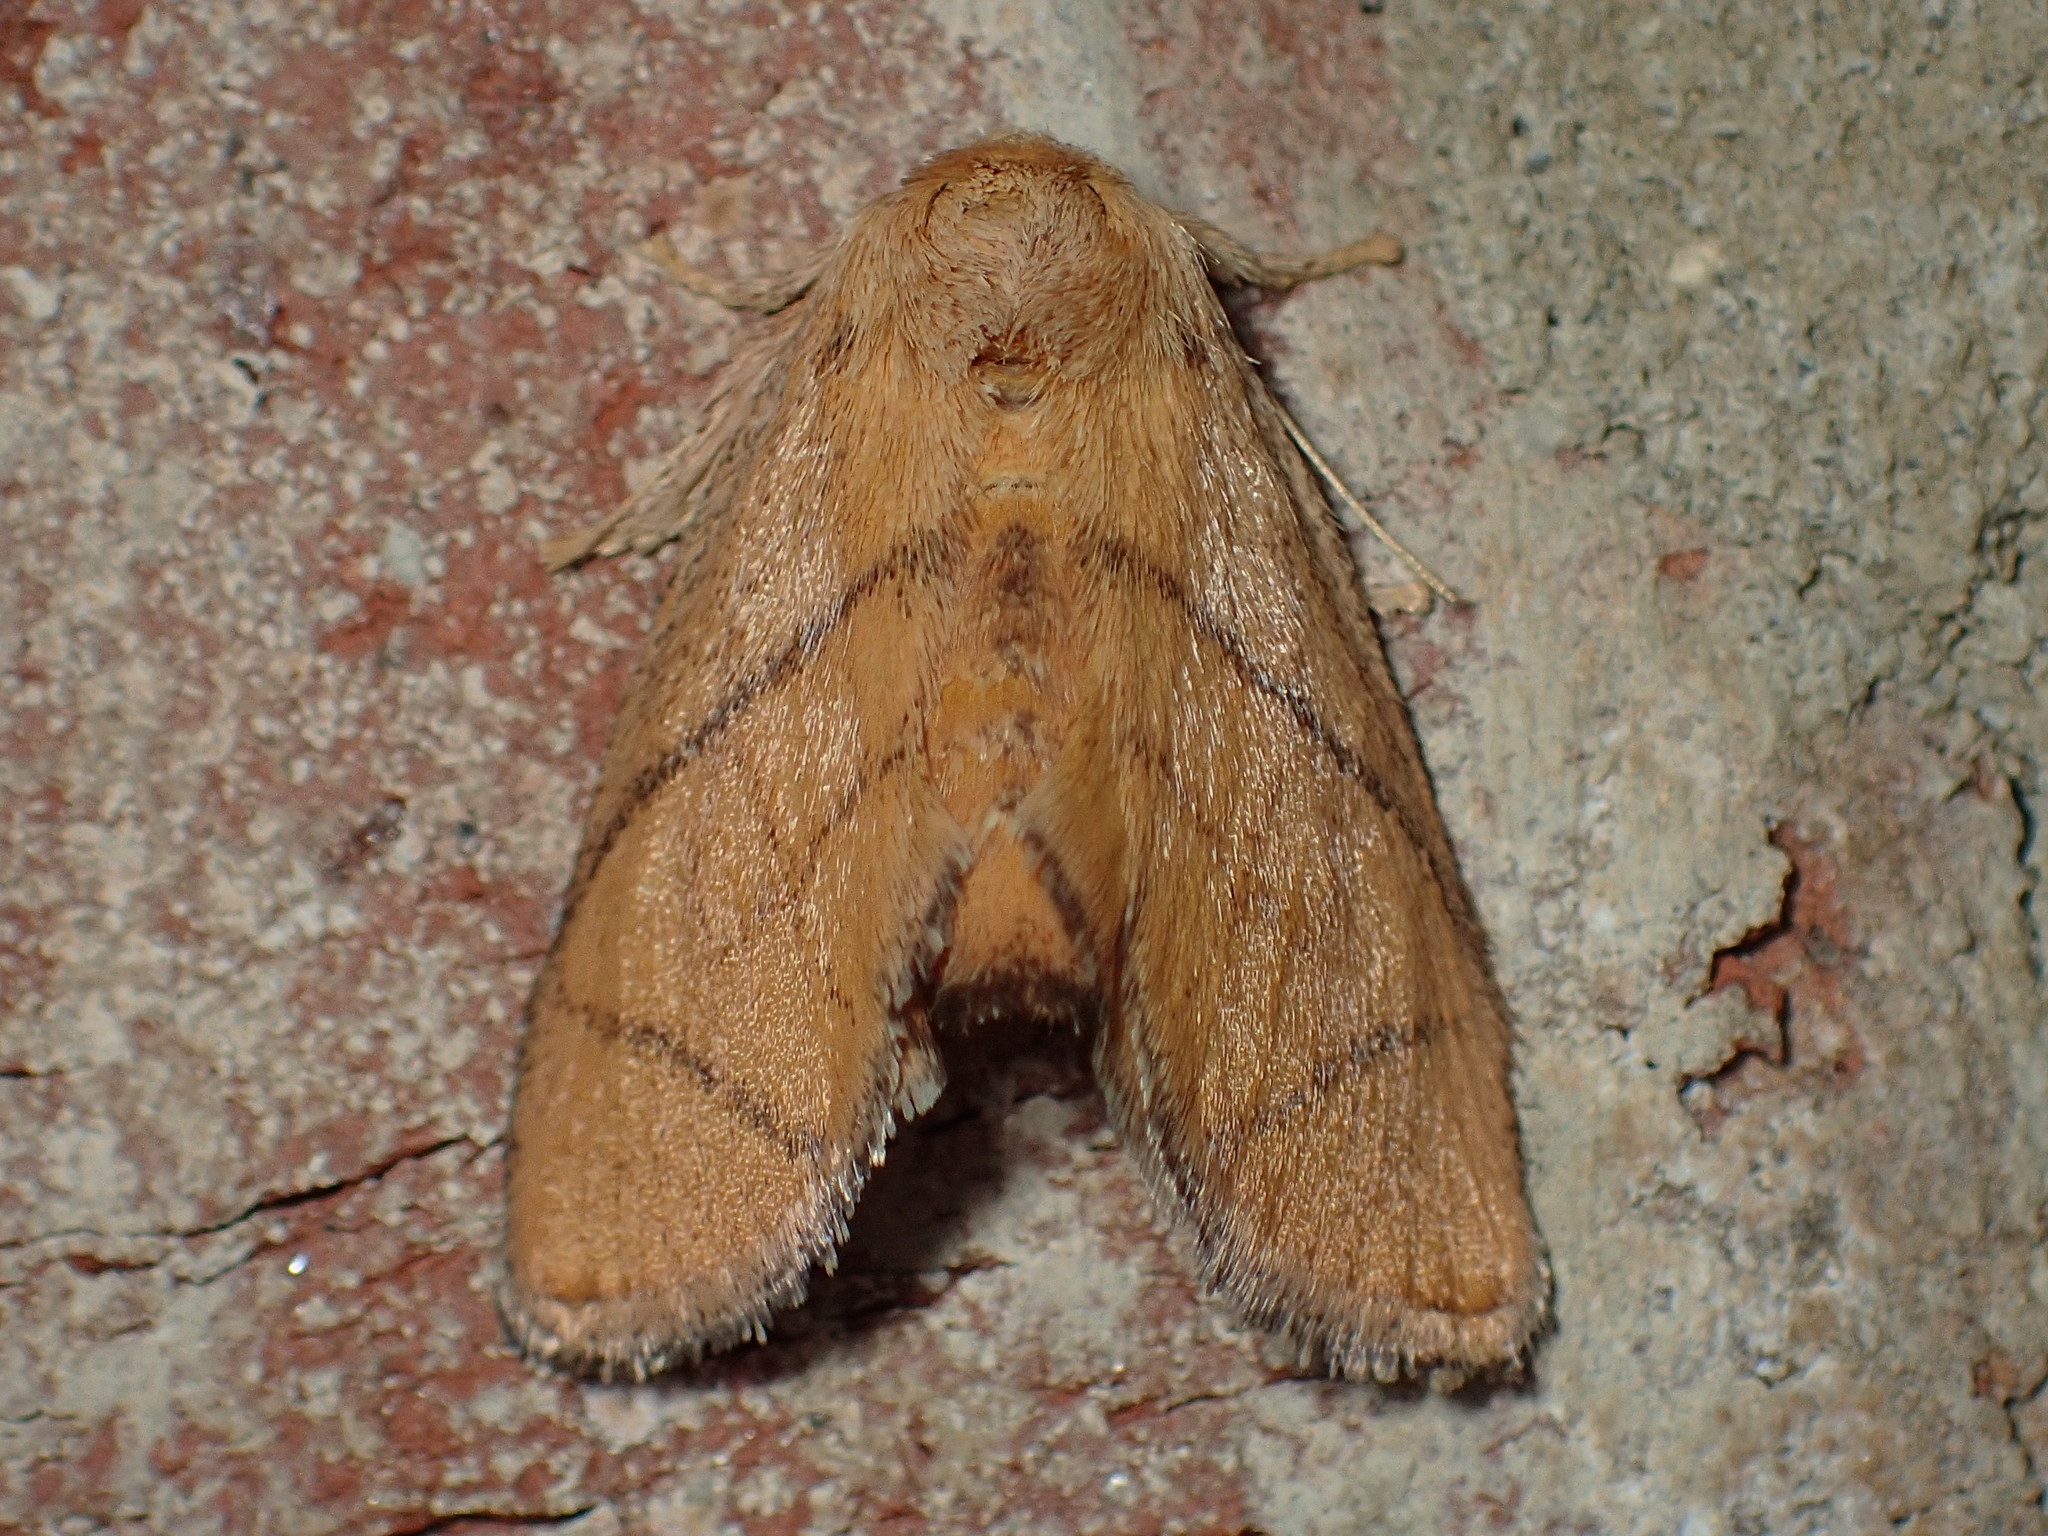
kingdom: Animalia
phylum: Arthropoda
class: Insecta
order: Lepidoptera
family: Limacodidae
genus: Apoda
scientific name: Apoda y-inversa
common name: Yellow-collared slug moth
